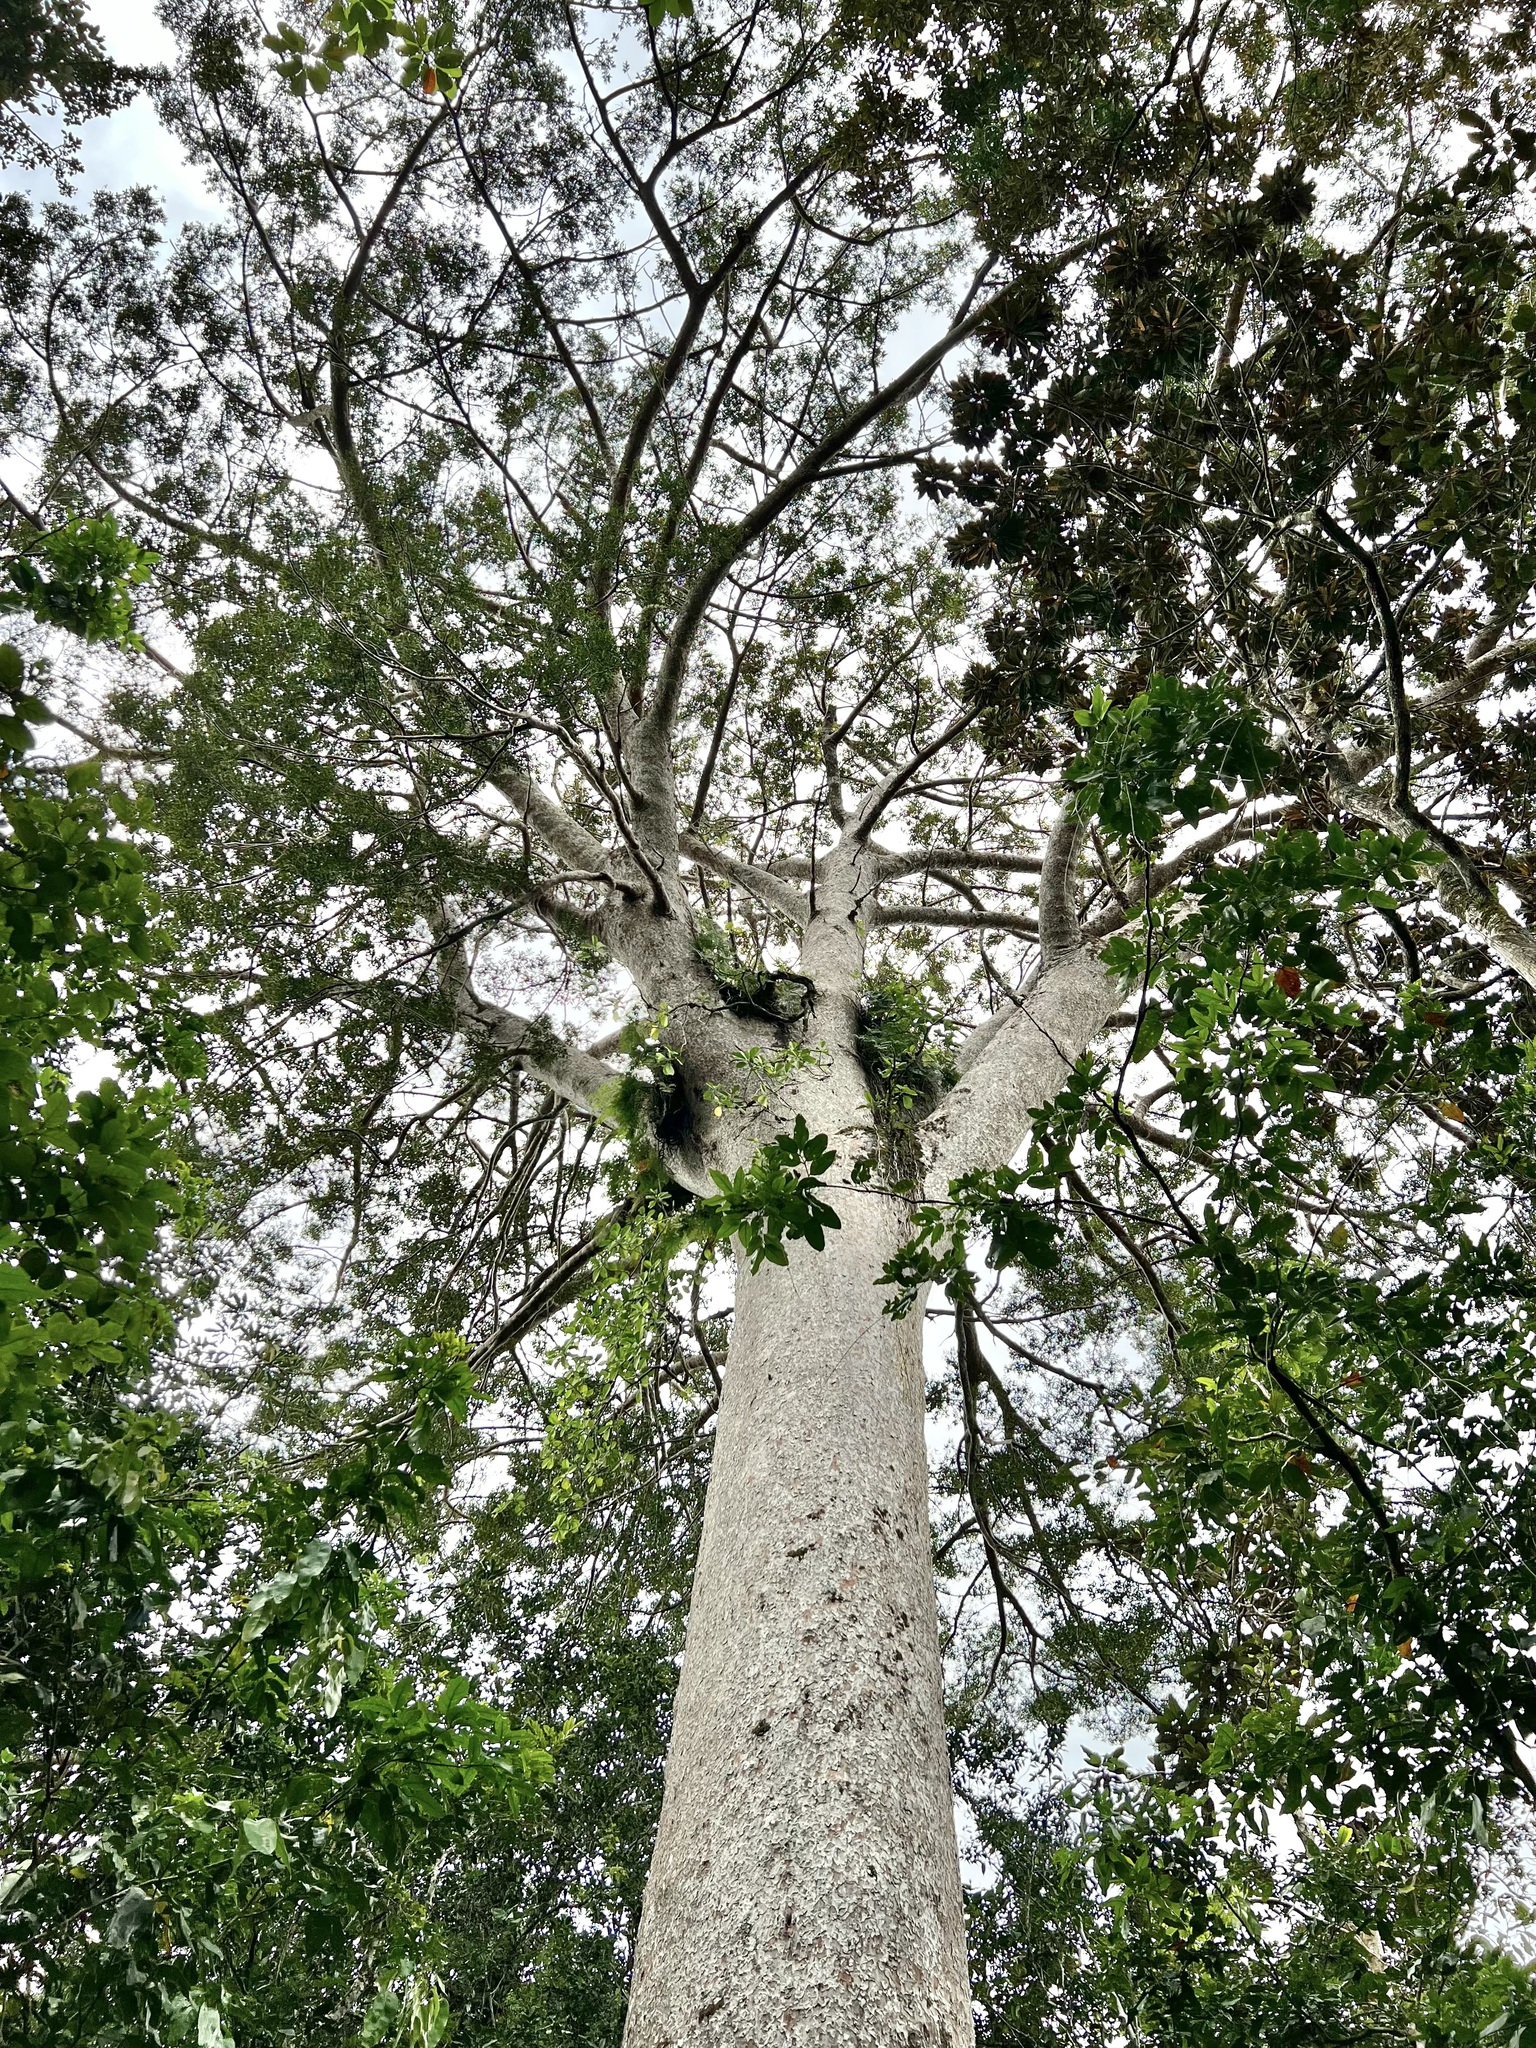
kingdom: Plantae
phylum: Tracheophyta
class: Pinopsida
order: Pinales
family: Araucariaceae
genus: Agathis
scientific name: Agathis lanceolata
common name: Koghis kauri
